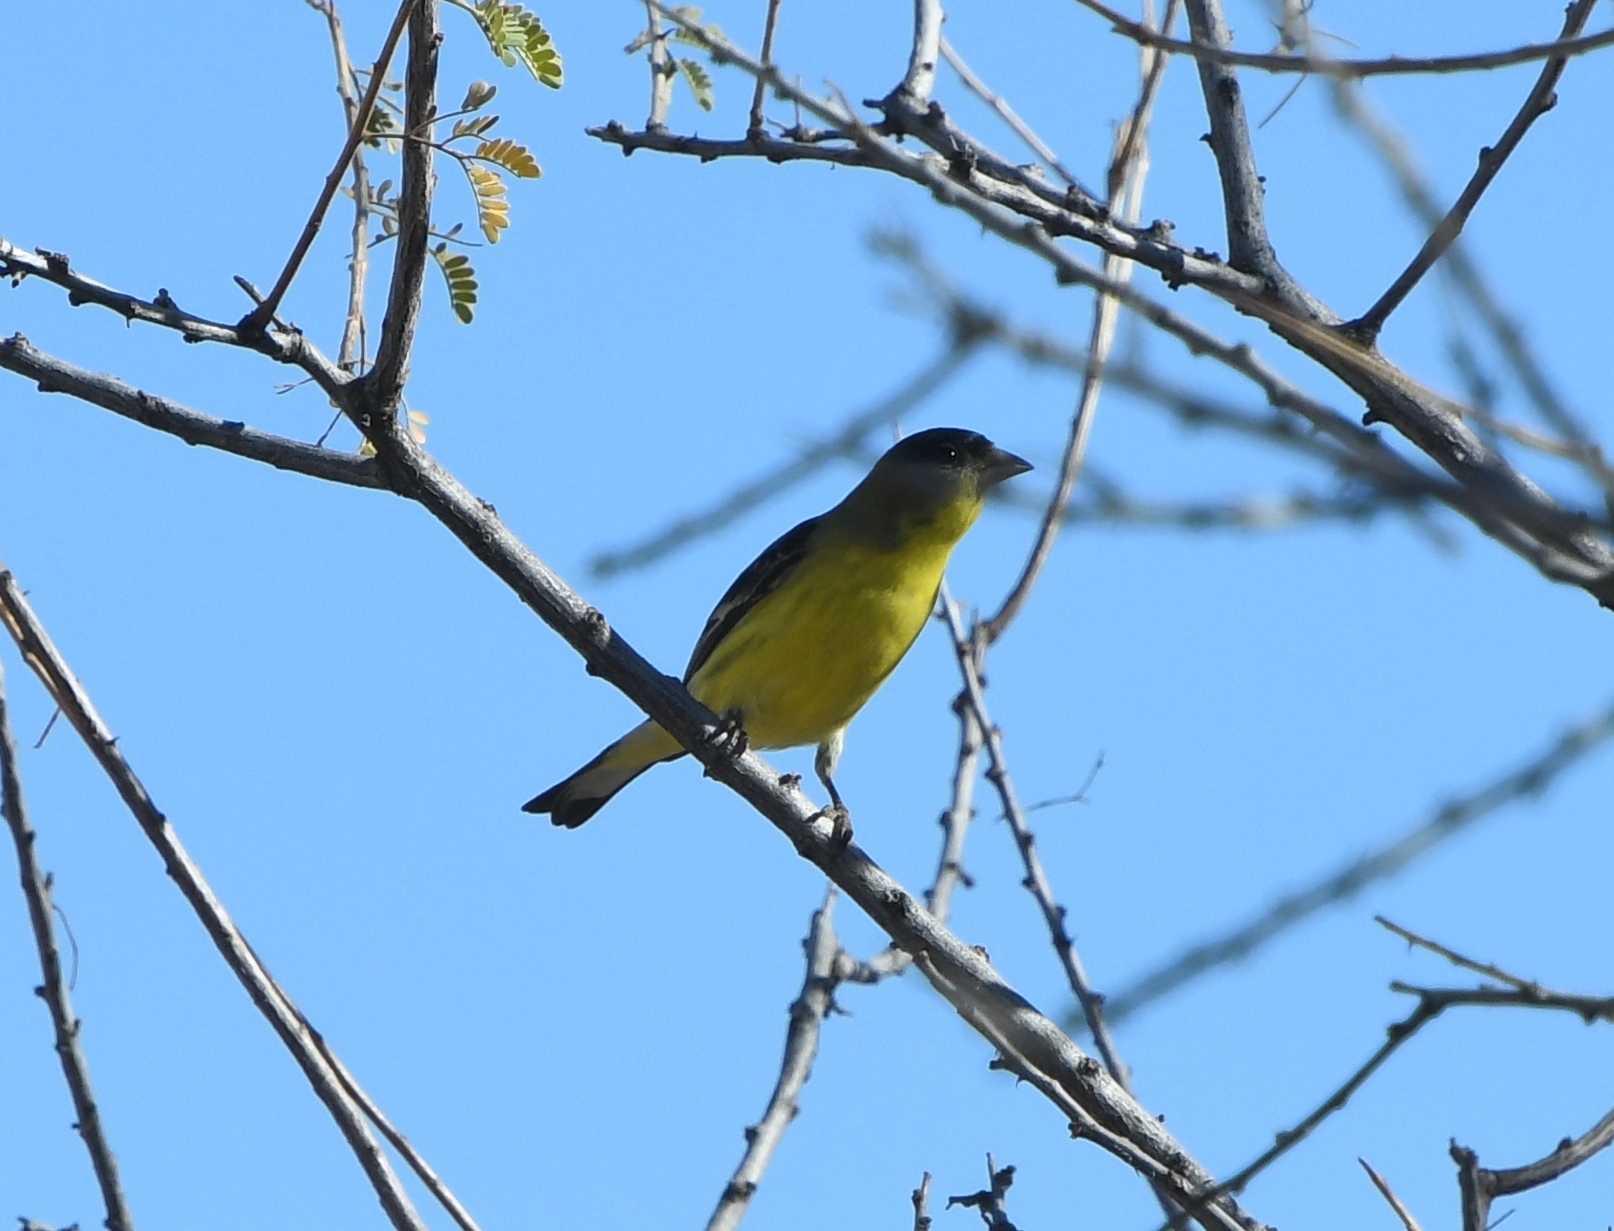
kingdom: Animalia
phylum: Chordata
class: Aves
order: Passeriformes
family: Fringillidae
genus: Spinus
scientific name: Spinus psaltria
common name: Lesser goldfinch
